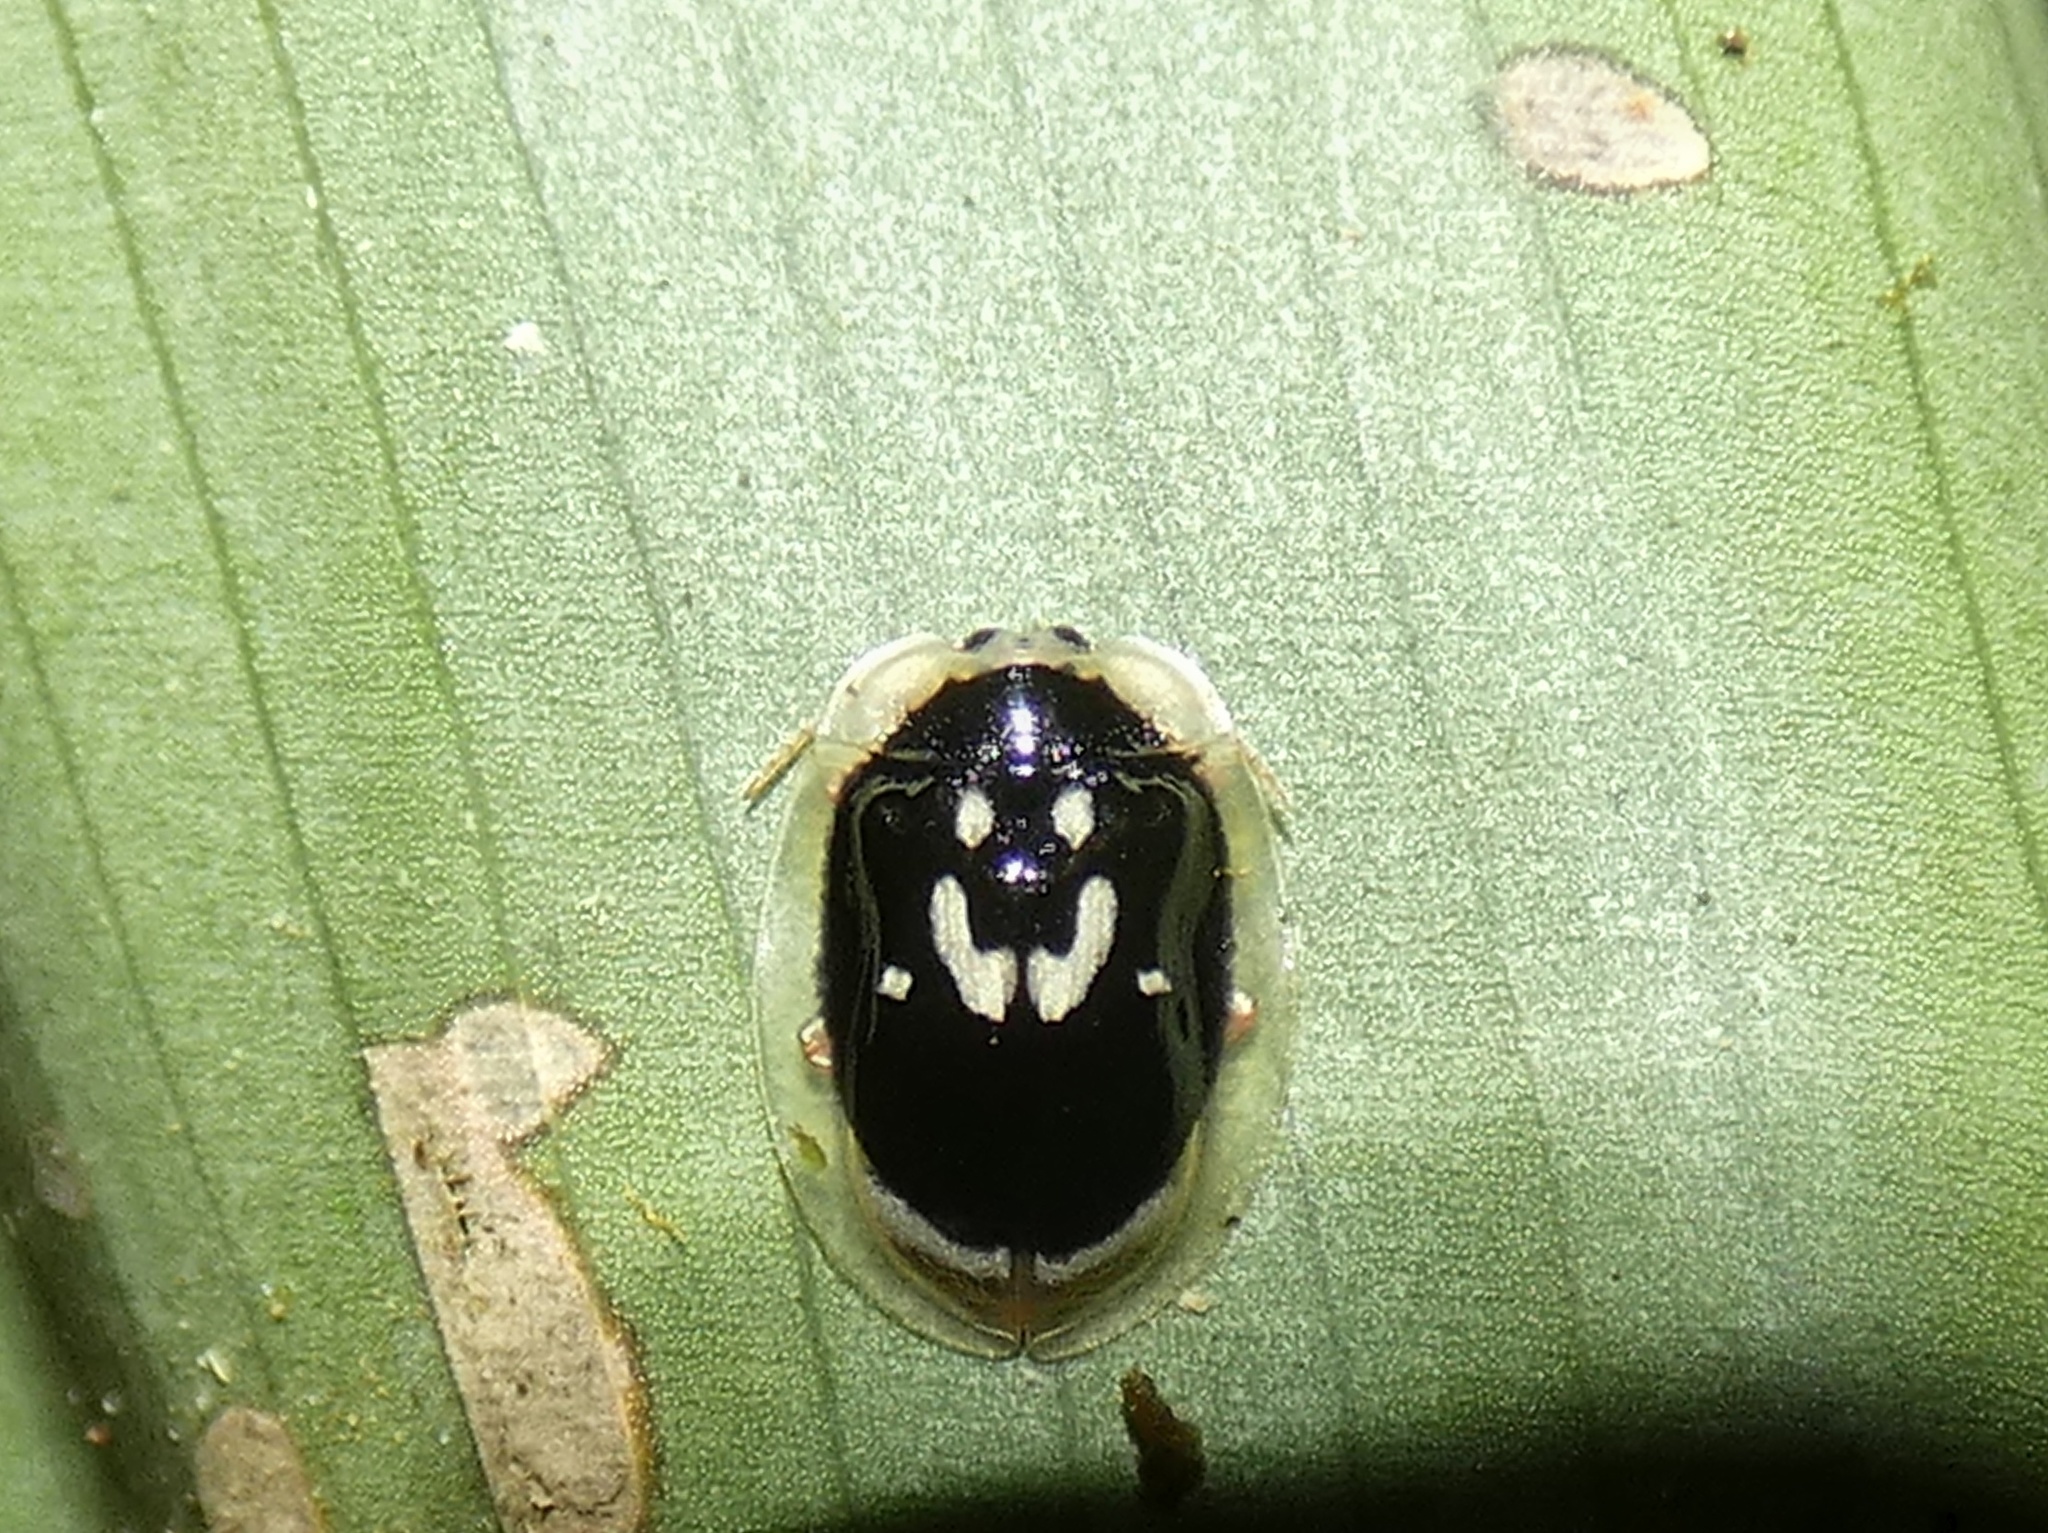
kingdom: Animalia
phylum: Arthropoda
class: Insecta
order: Coleoptera
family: Chrysomelidae
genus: Aslamidium
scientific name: Aslamidium semicirculare
